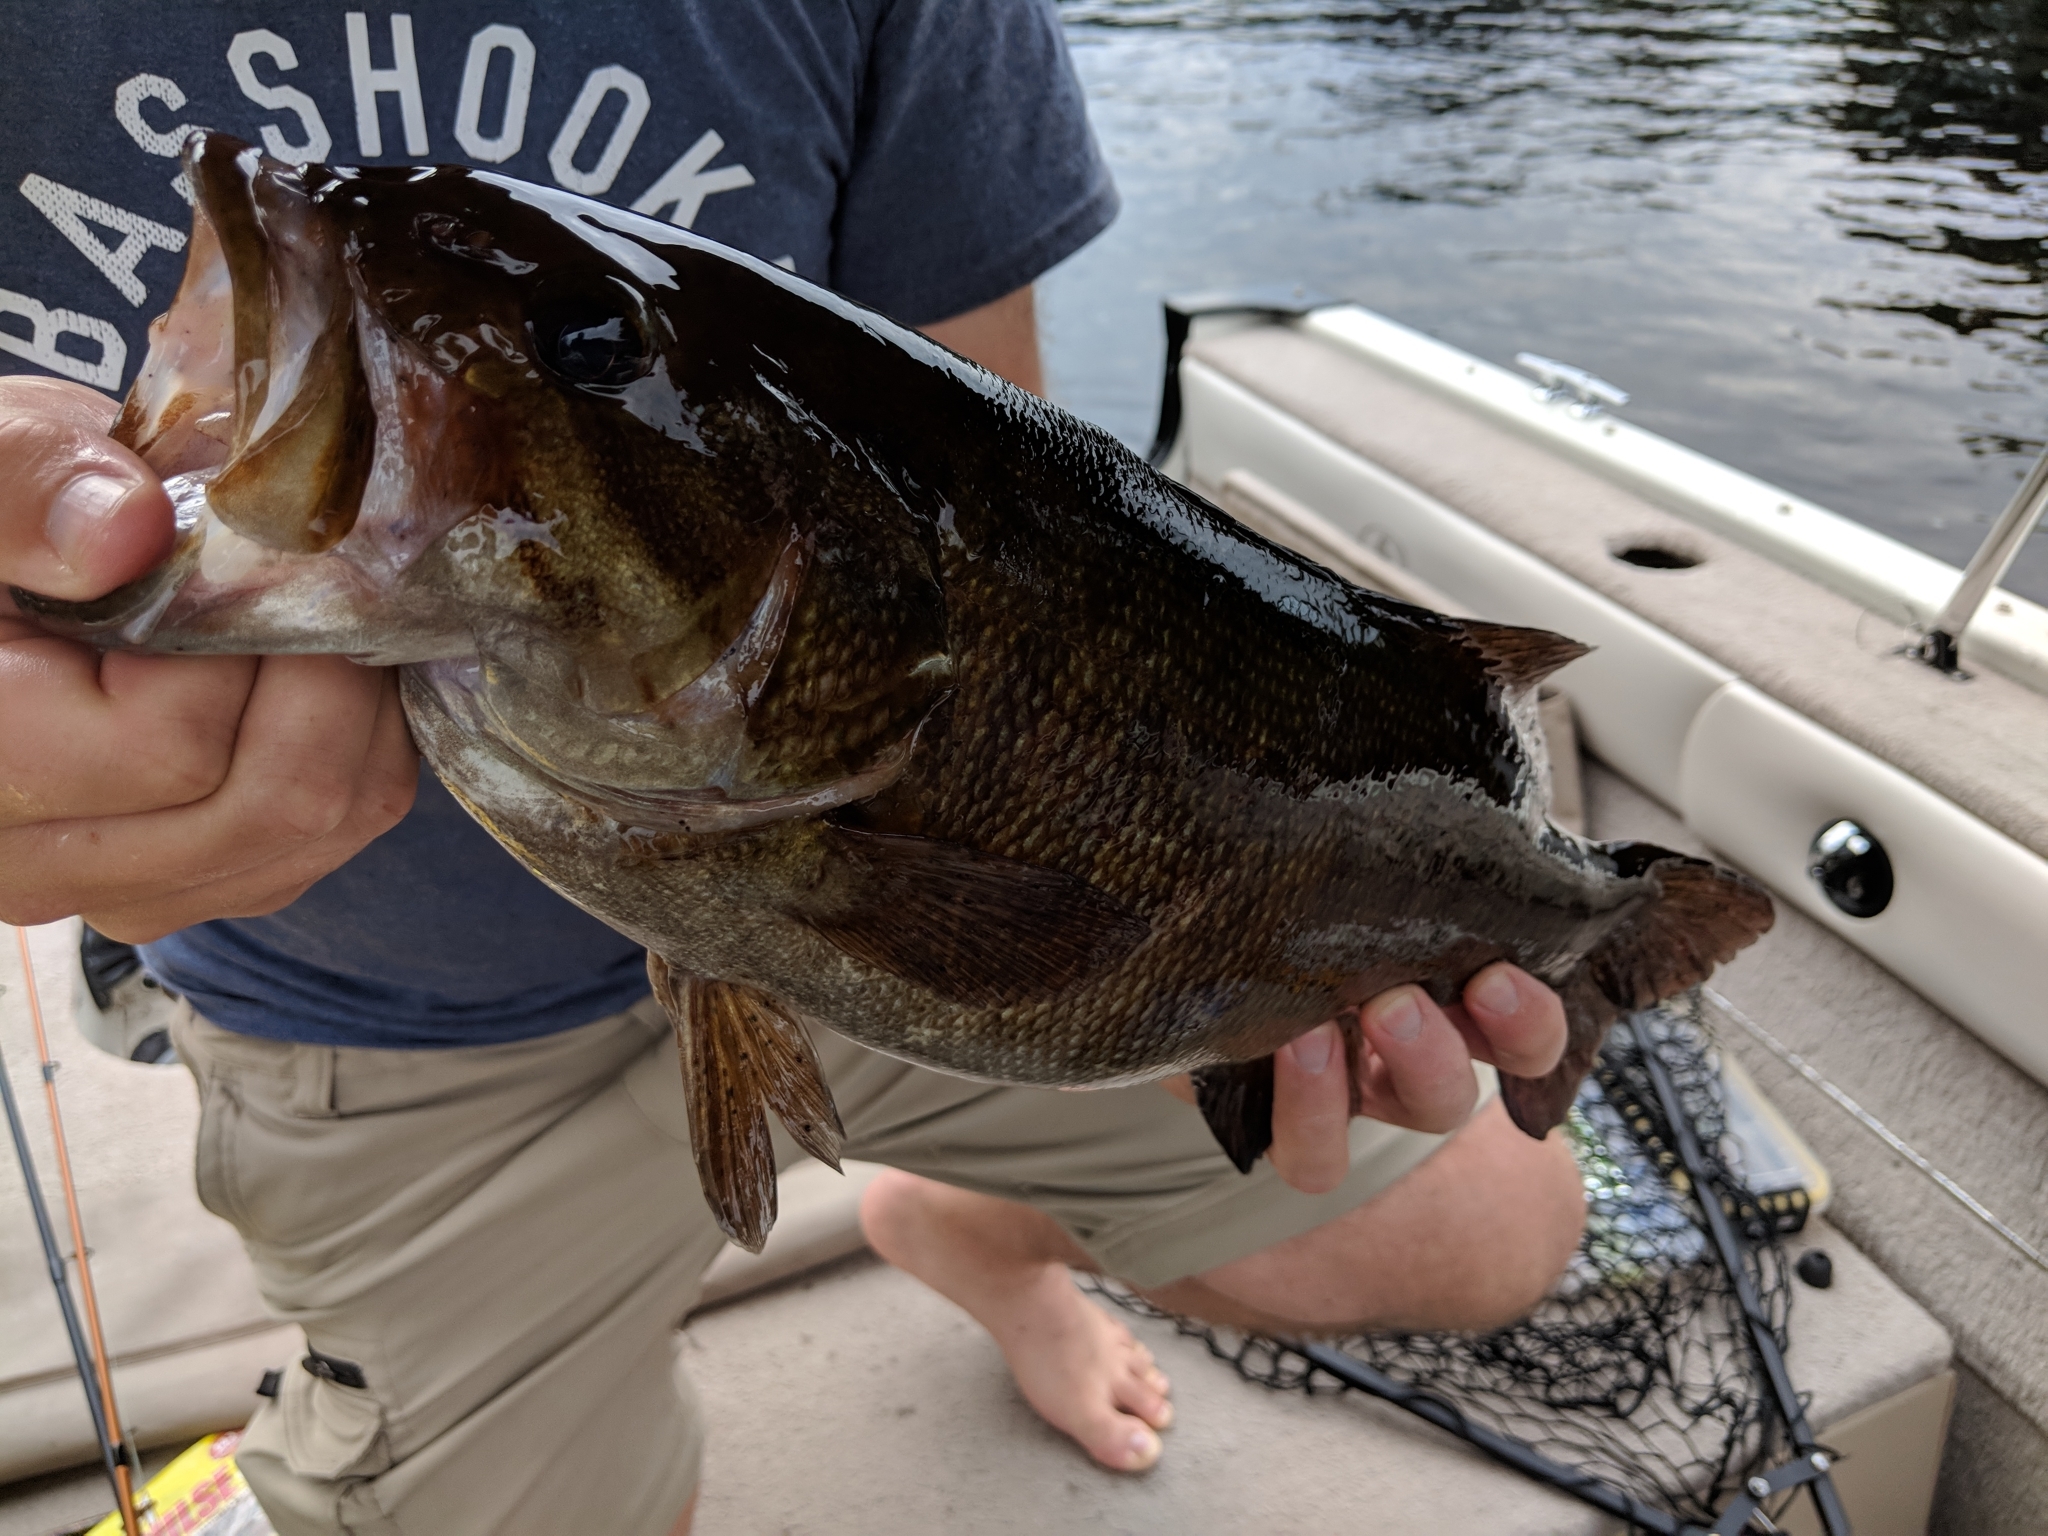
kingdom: Animalia
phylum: Chordata
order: Perciformes
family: Centrarchidae
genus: Micropterus
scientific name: Micropterus dolomieu
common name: Smallmouth bass
